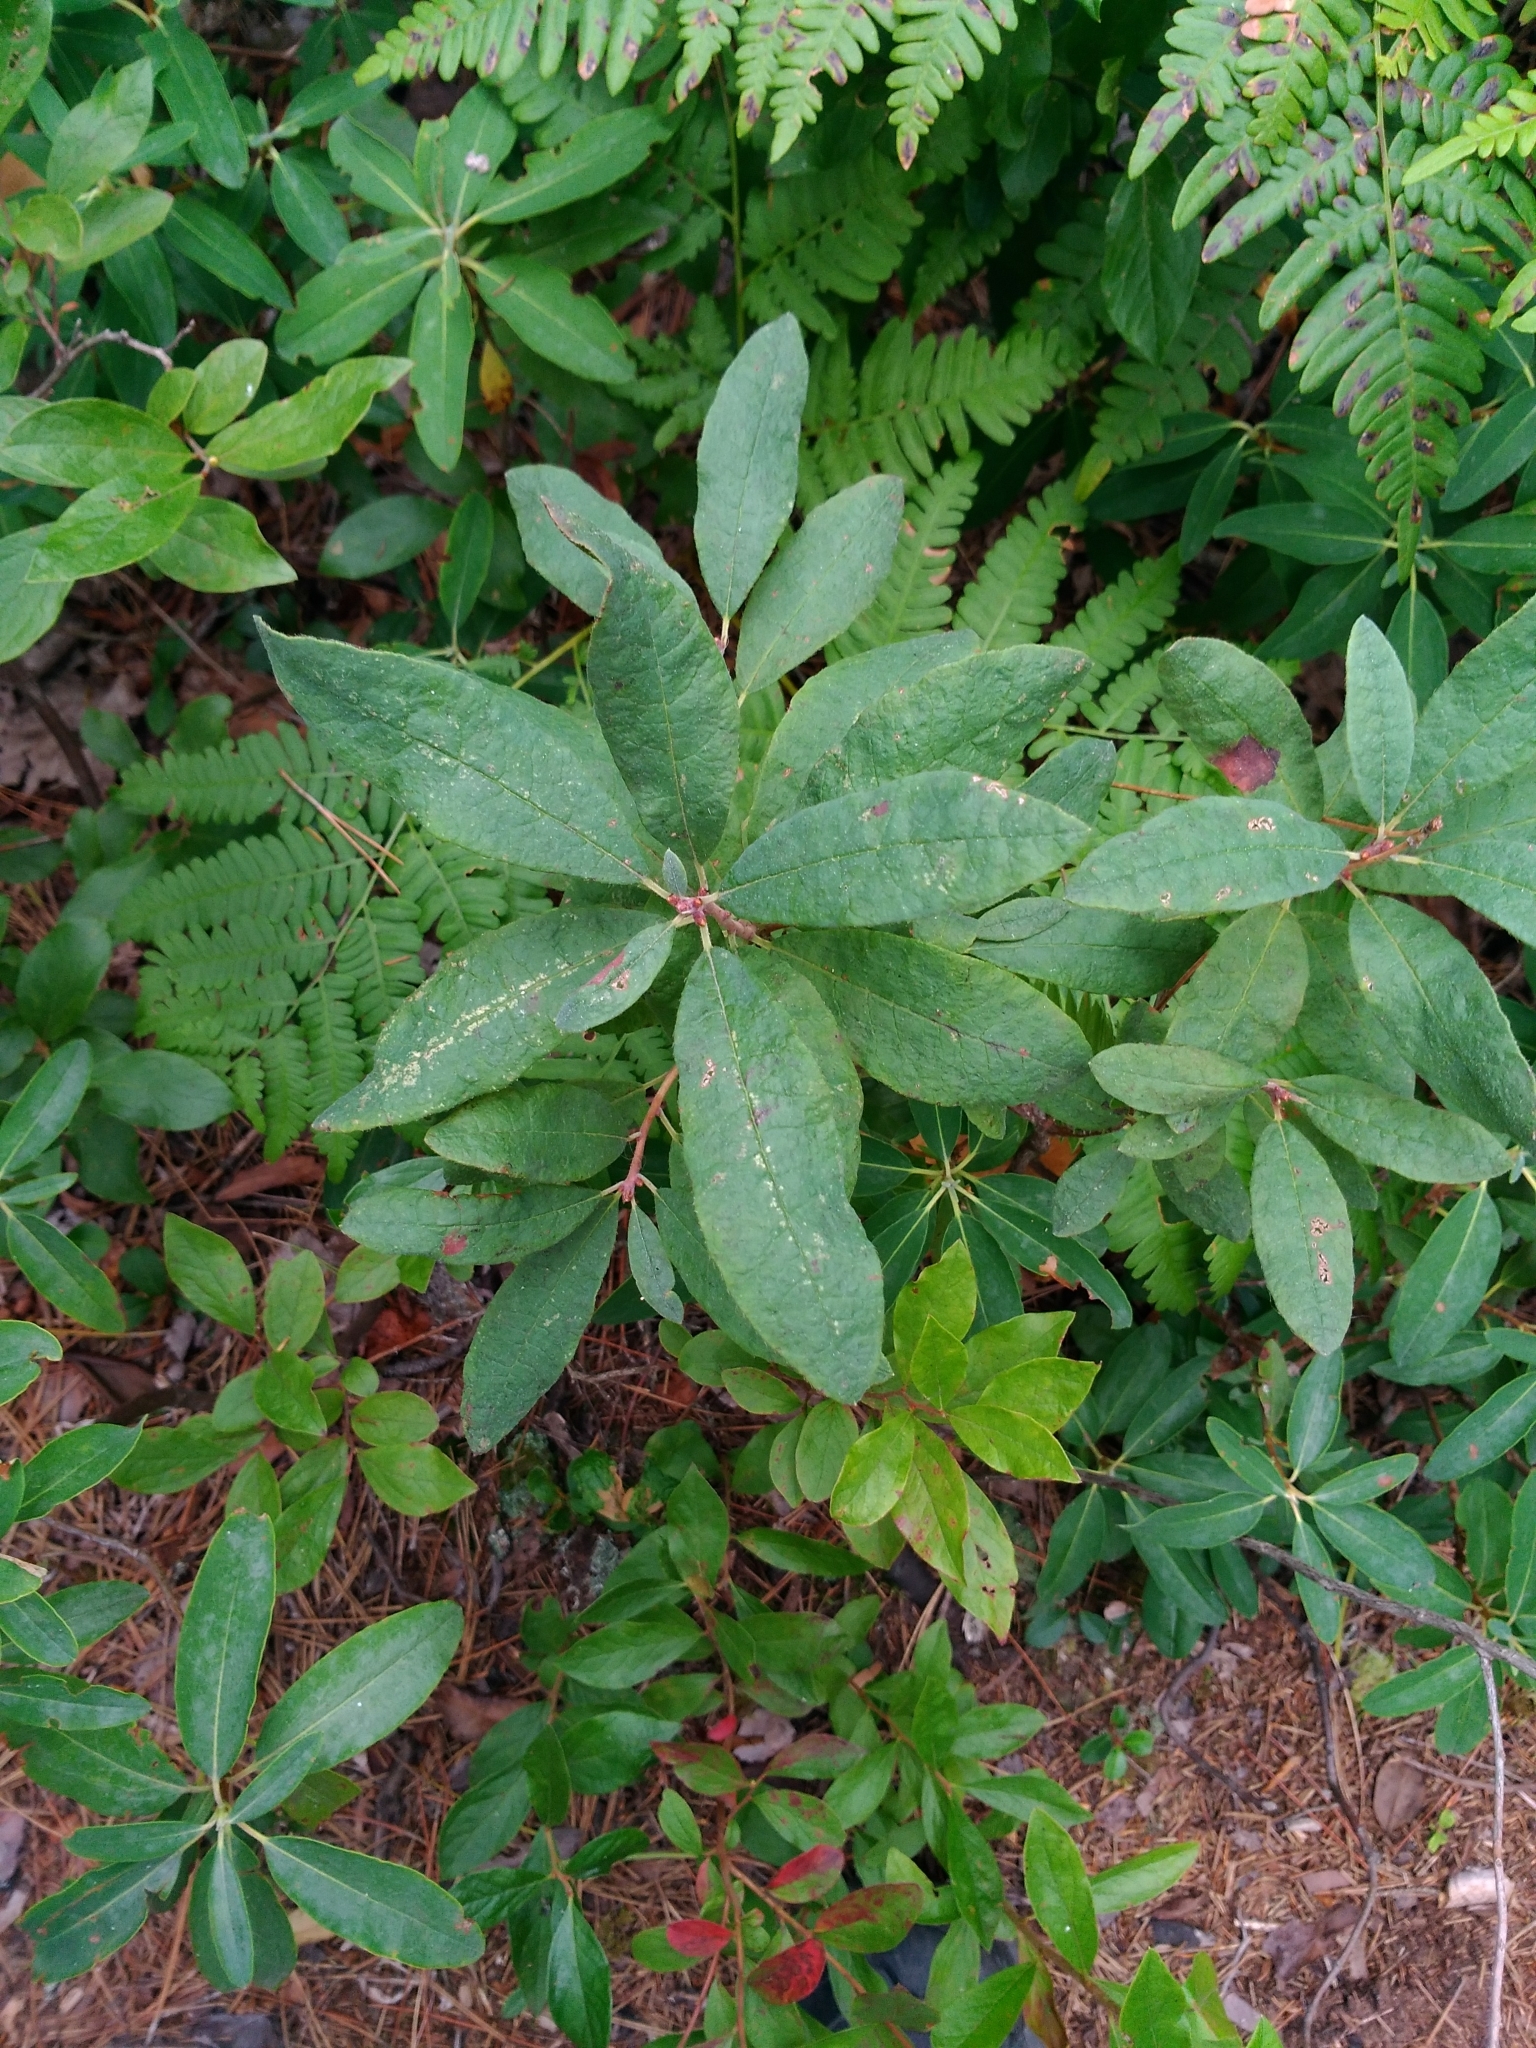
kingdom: Plantae
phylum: Tracheophyta
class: Magnoliopsida
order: Ericales
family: Ericaceae
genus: Rhododendron
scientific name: Rhododendron canadense
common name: Rhodora
